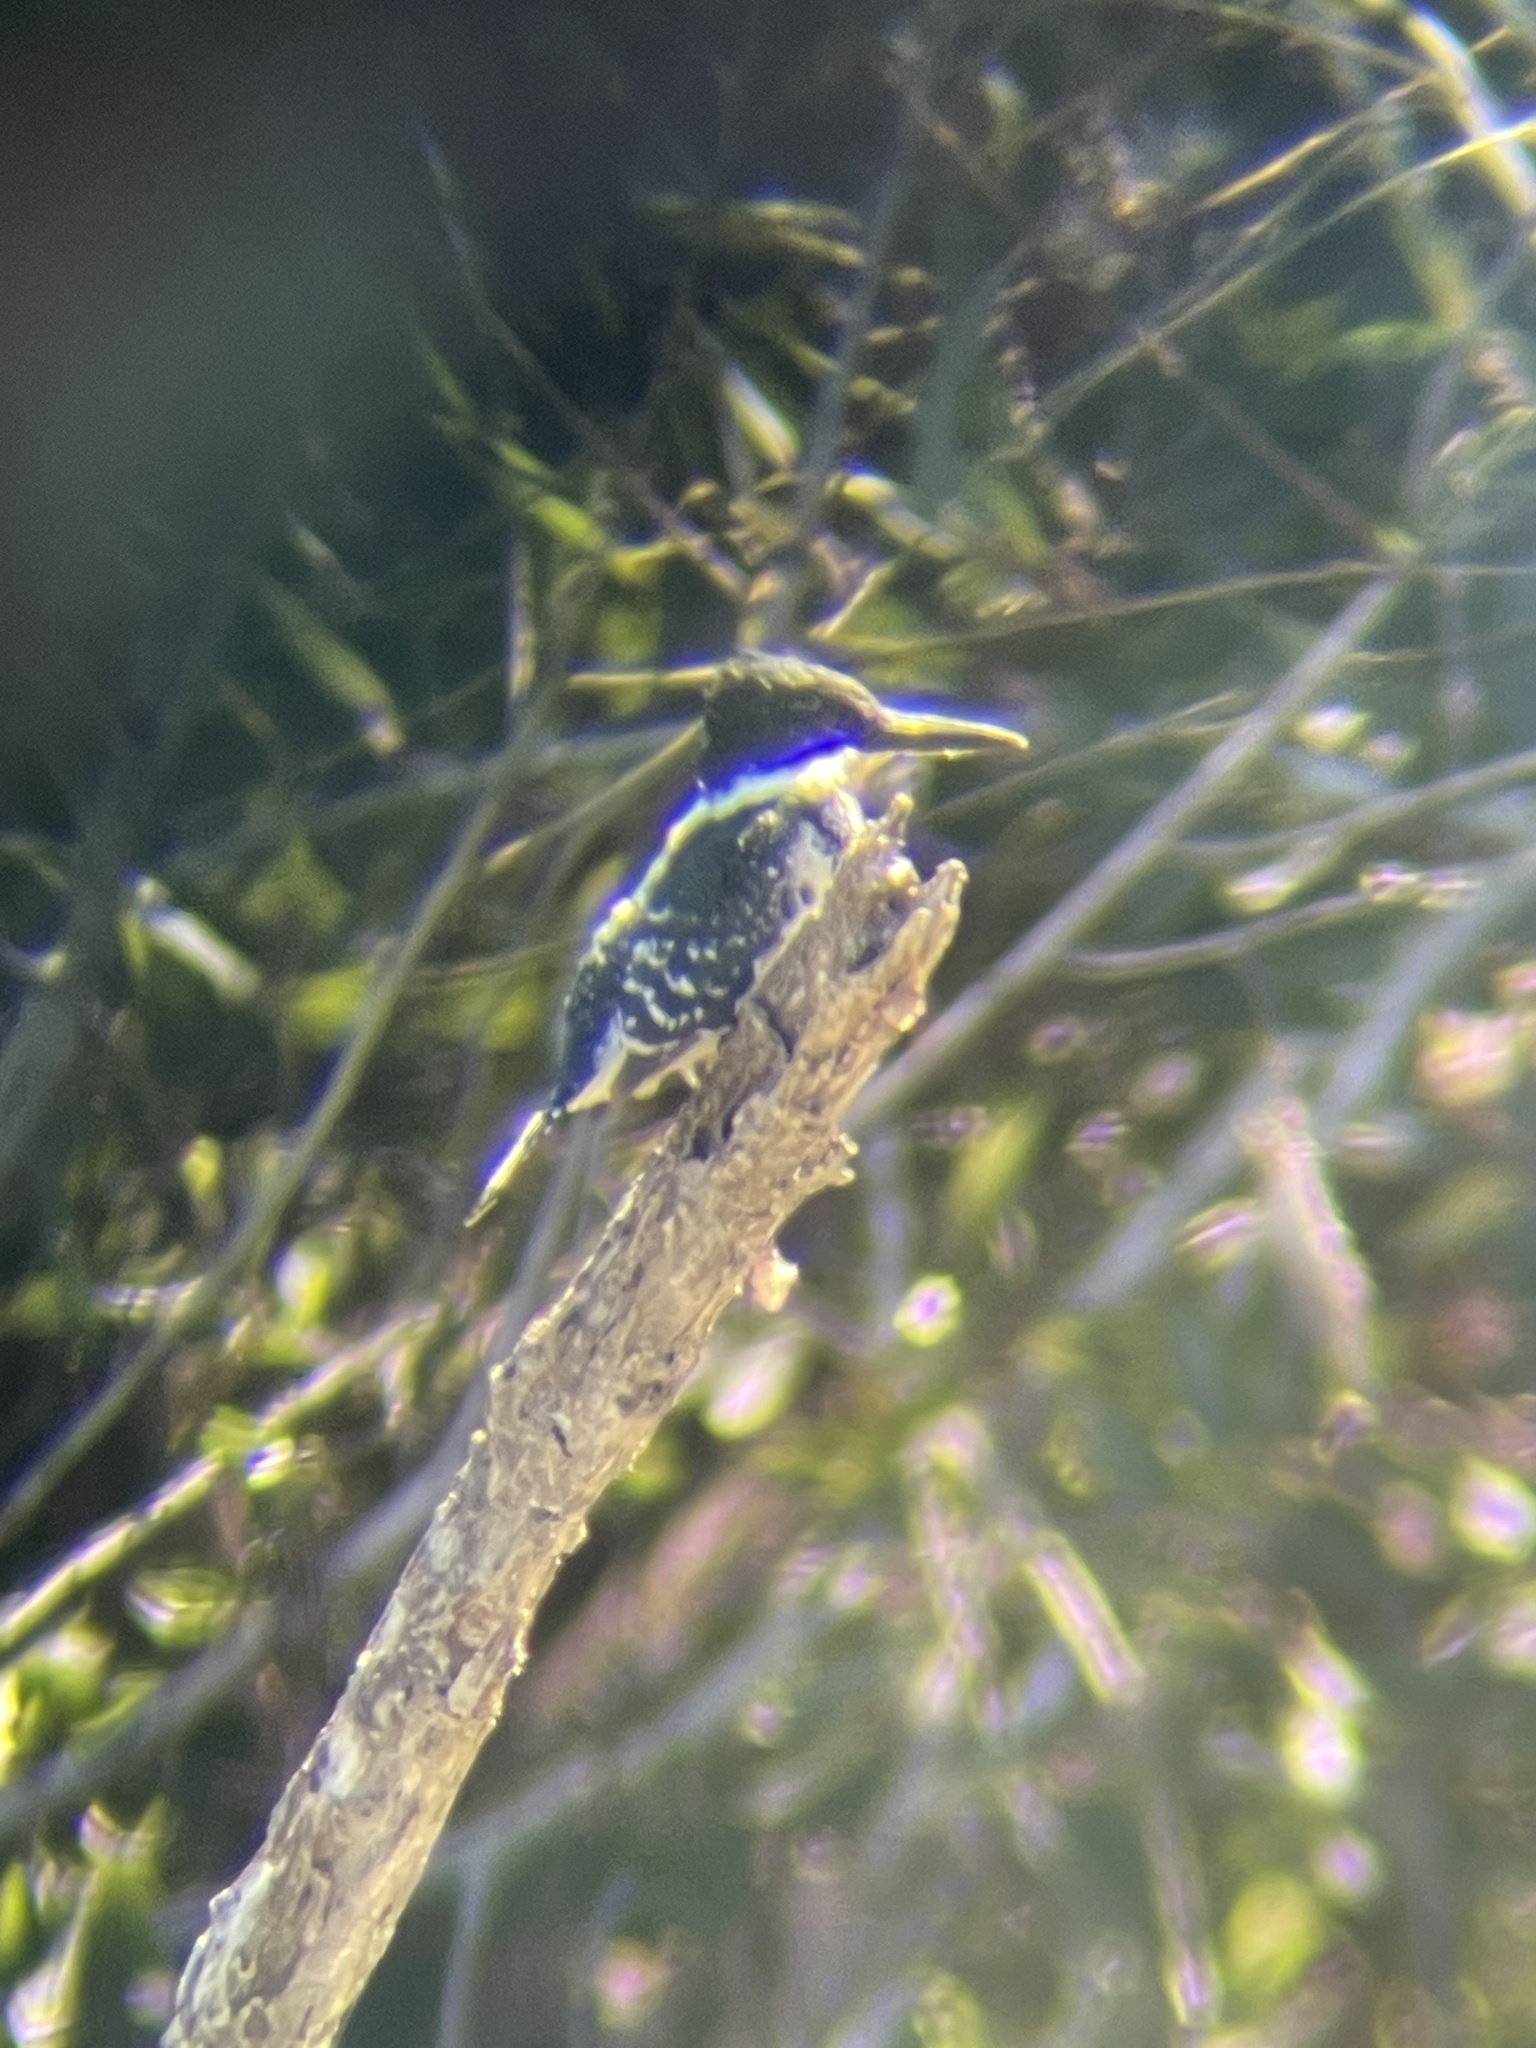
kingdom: Animalia
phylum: Chordata
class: Aves
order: Coraciiformes
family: Alcedinidae
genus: Chloroceryle
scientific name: Chloroceryle americana
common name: Green kingfisher
